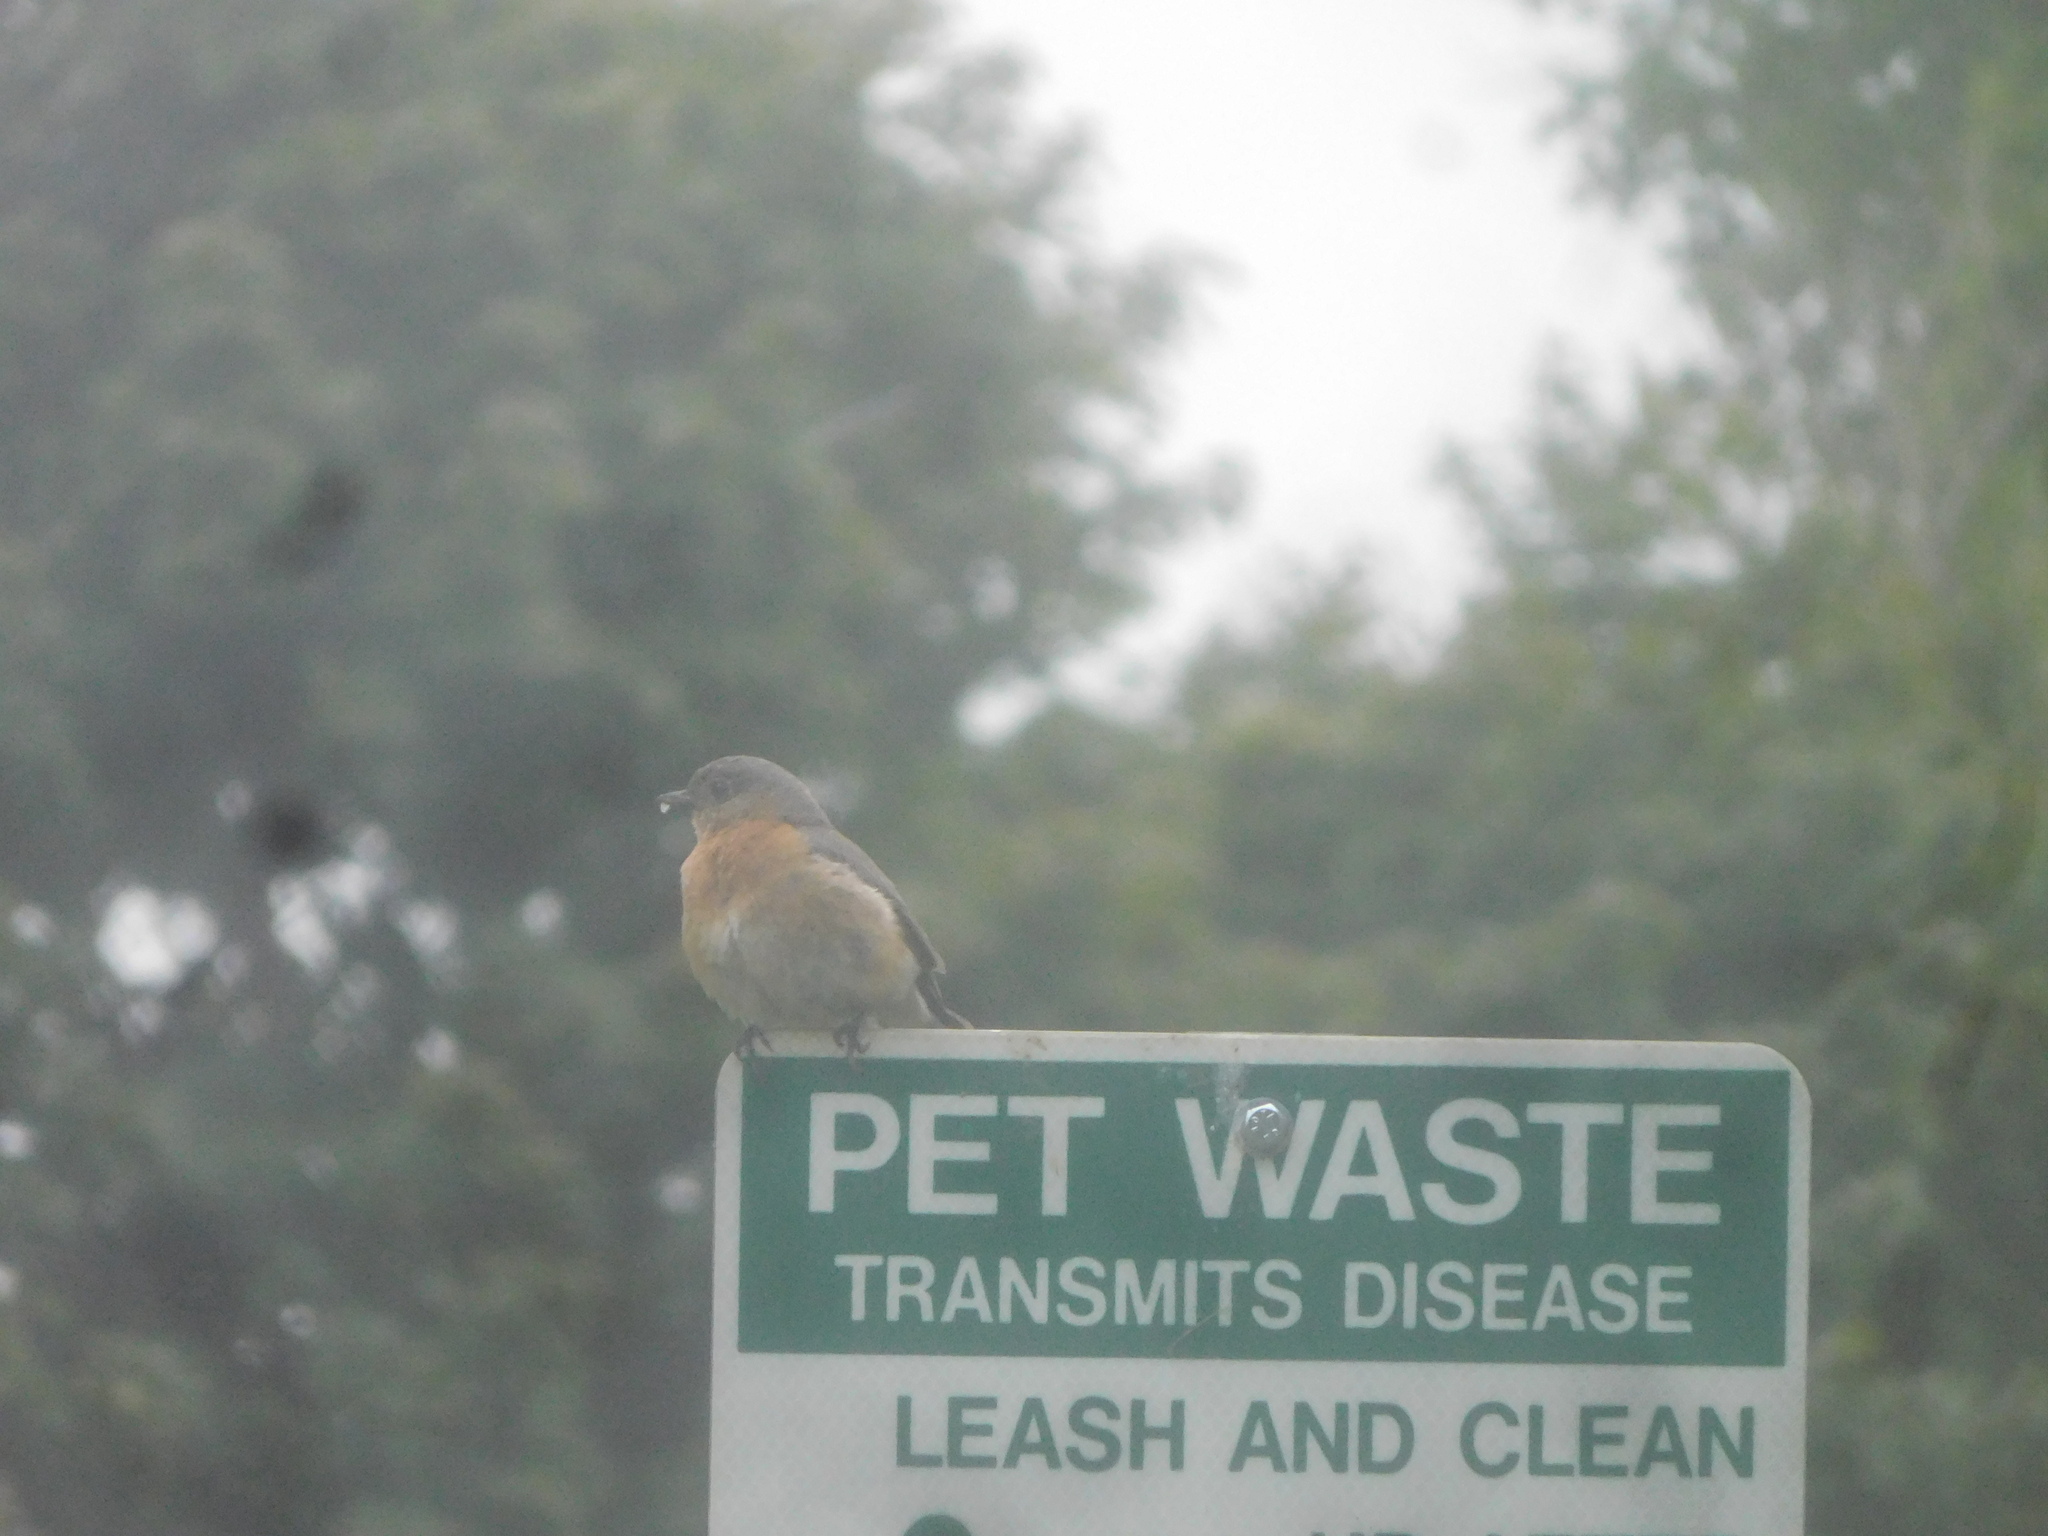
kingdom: Animalia
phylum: Chordata
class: Aves
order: Passeriformes
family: Turdidae
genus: Sialia
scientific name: Sialia sialis
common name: Eastern bluebird
